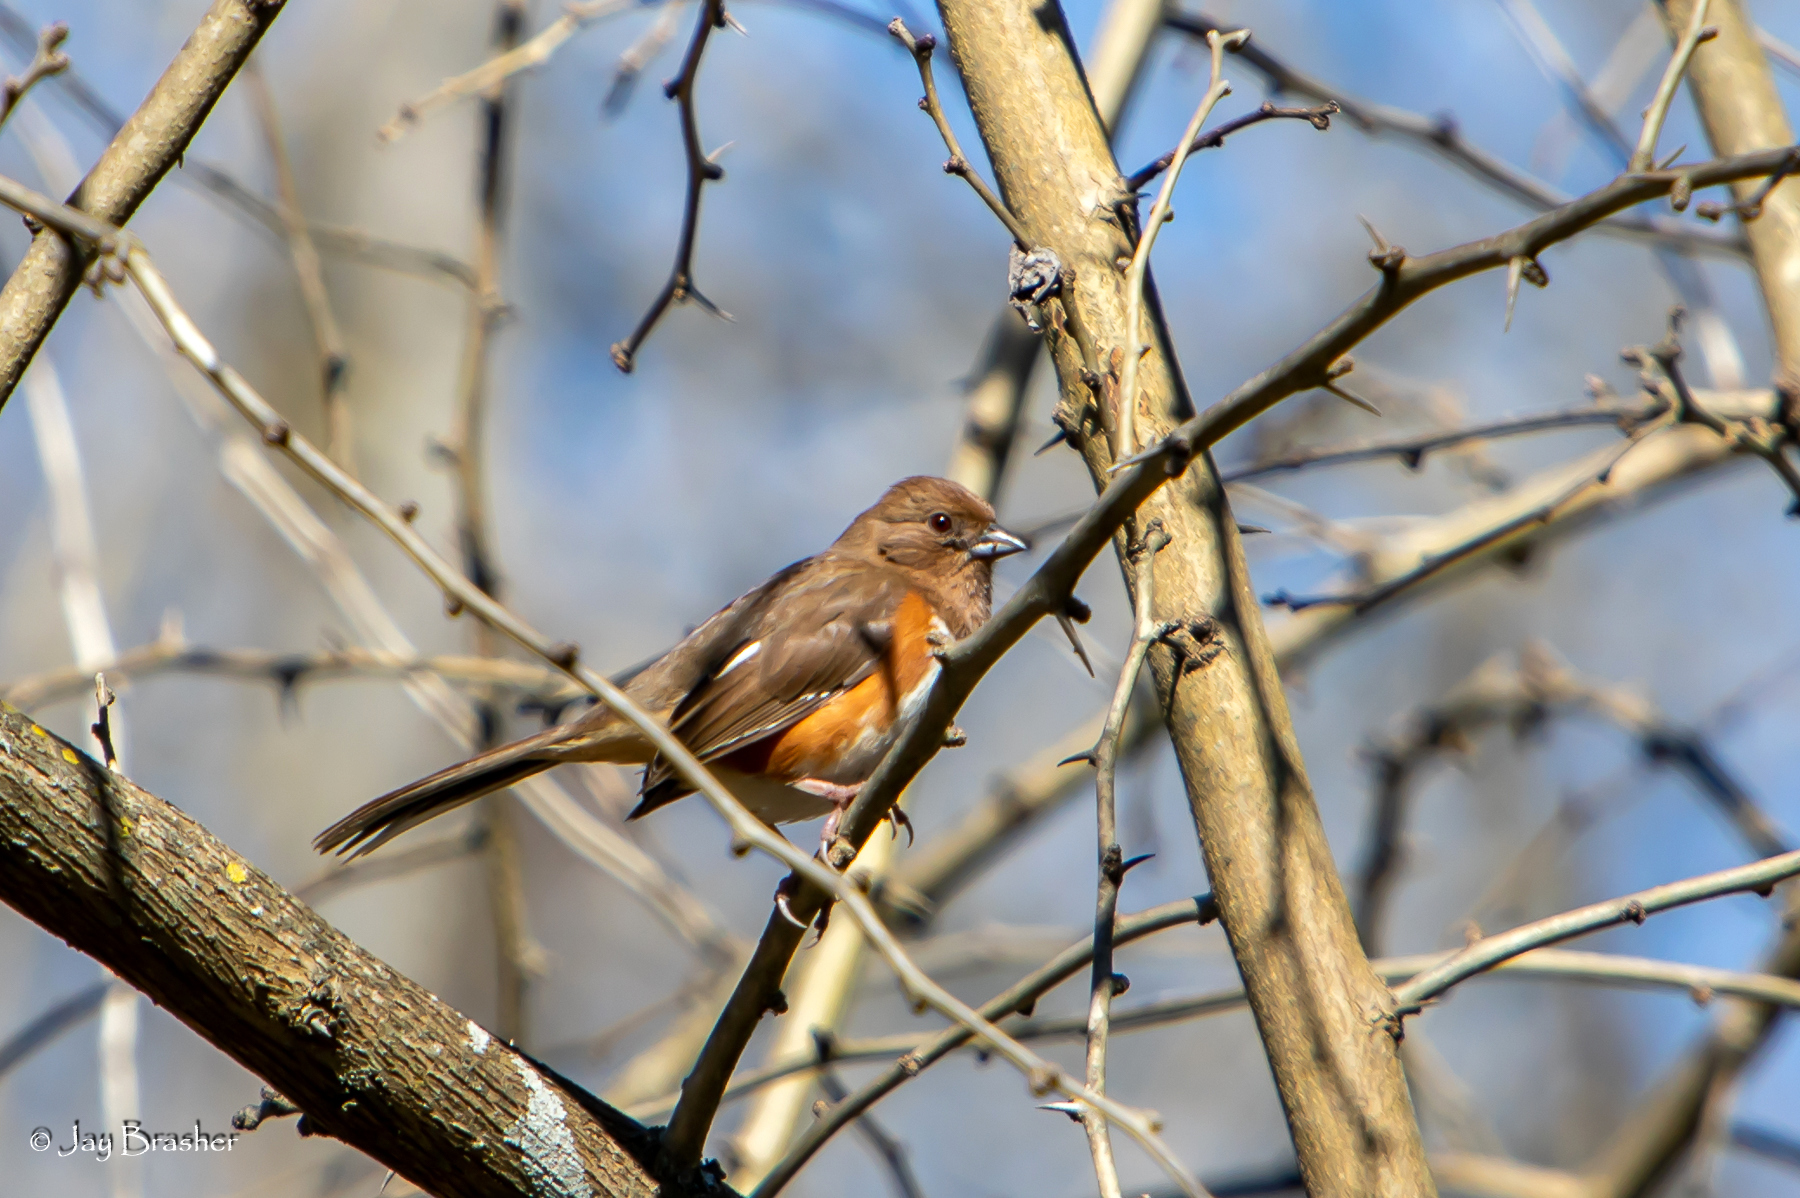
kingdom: Animalia
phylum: Chordata
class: Aves
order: Passeriformes
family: Passerellidae
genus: Pipilo
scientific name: Pipilo erythrophthalmus
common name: Eastern towhee
